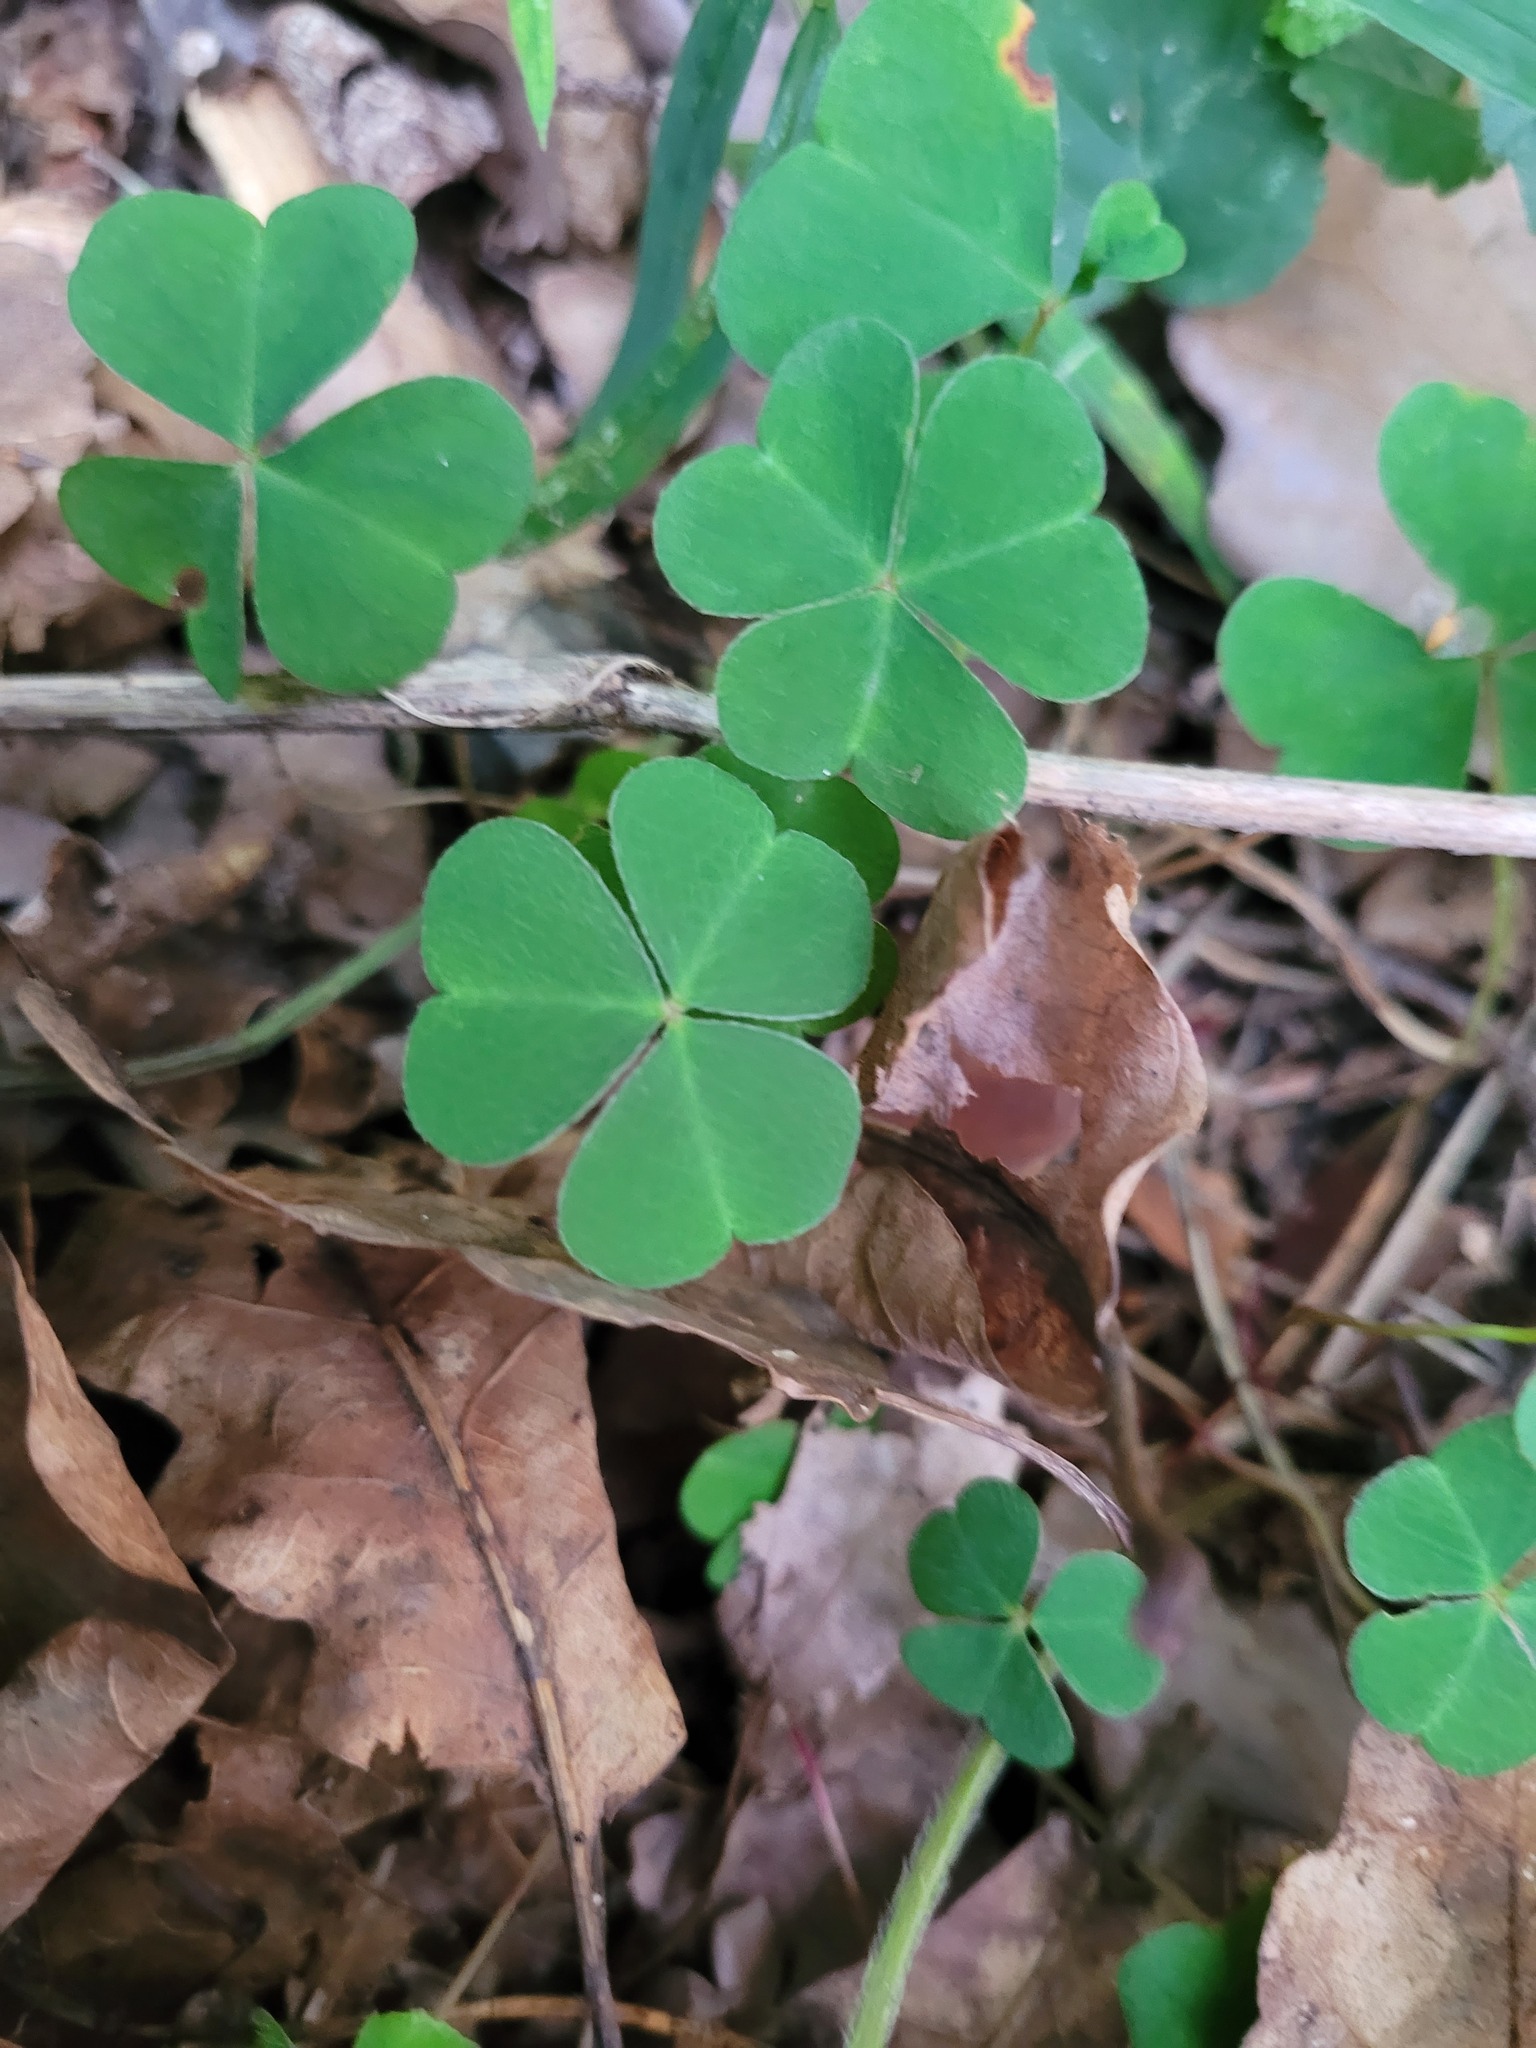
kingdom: Plantae
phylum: Tracheophyta
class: Magnoliopsida
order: Oxalidales
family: Oxalidaceae
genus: Oxalis
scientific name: Oxalis acetosella
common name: Wood-sorrel
